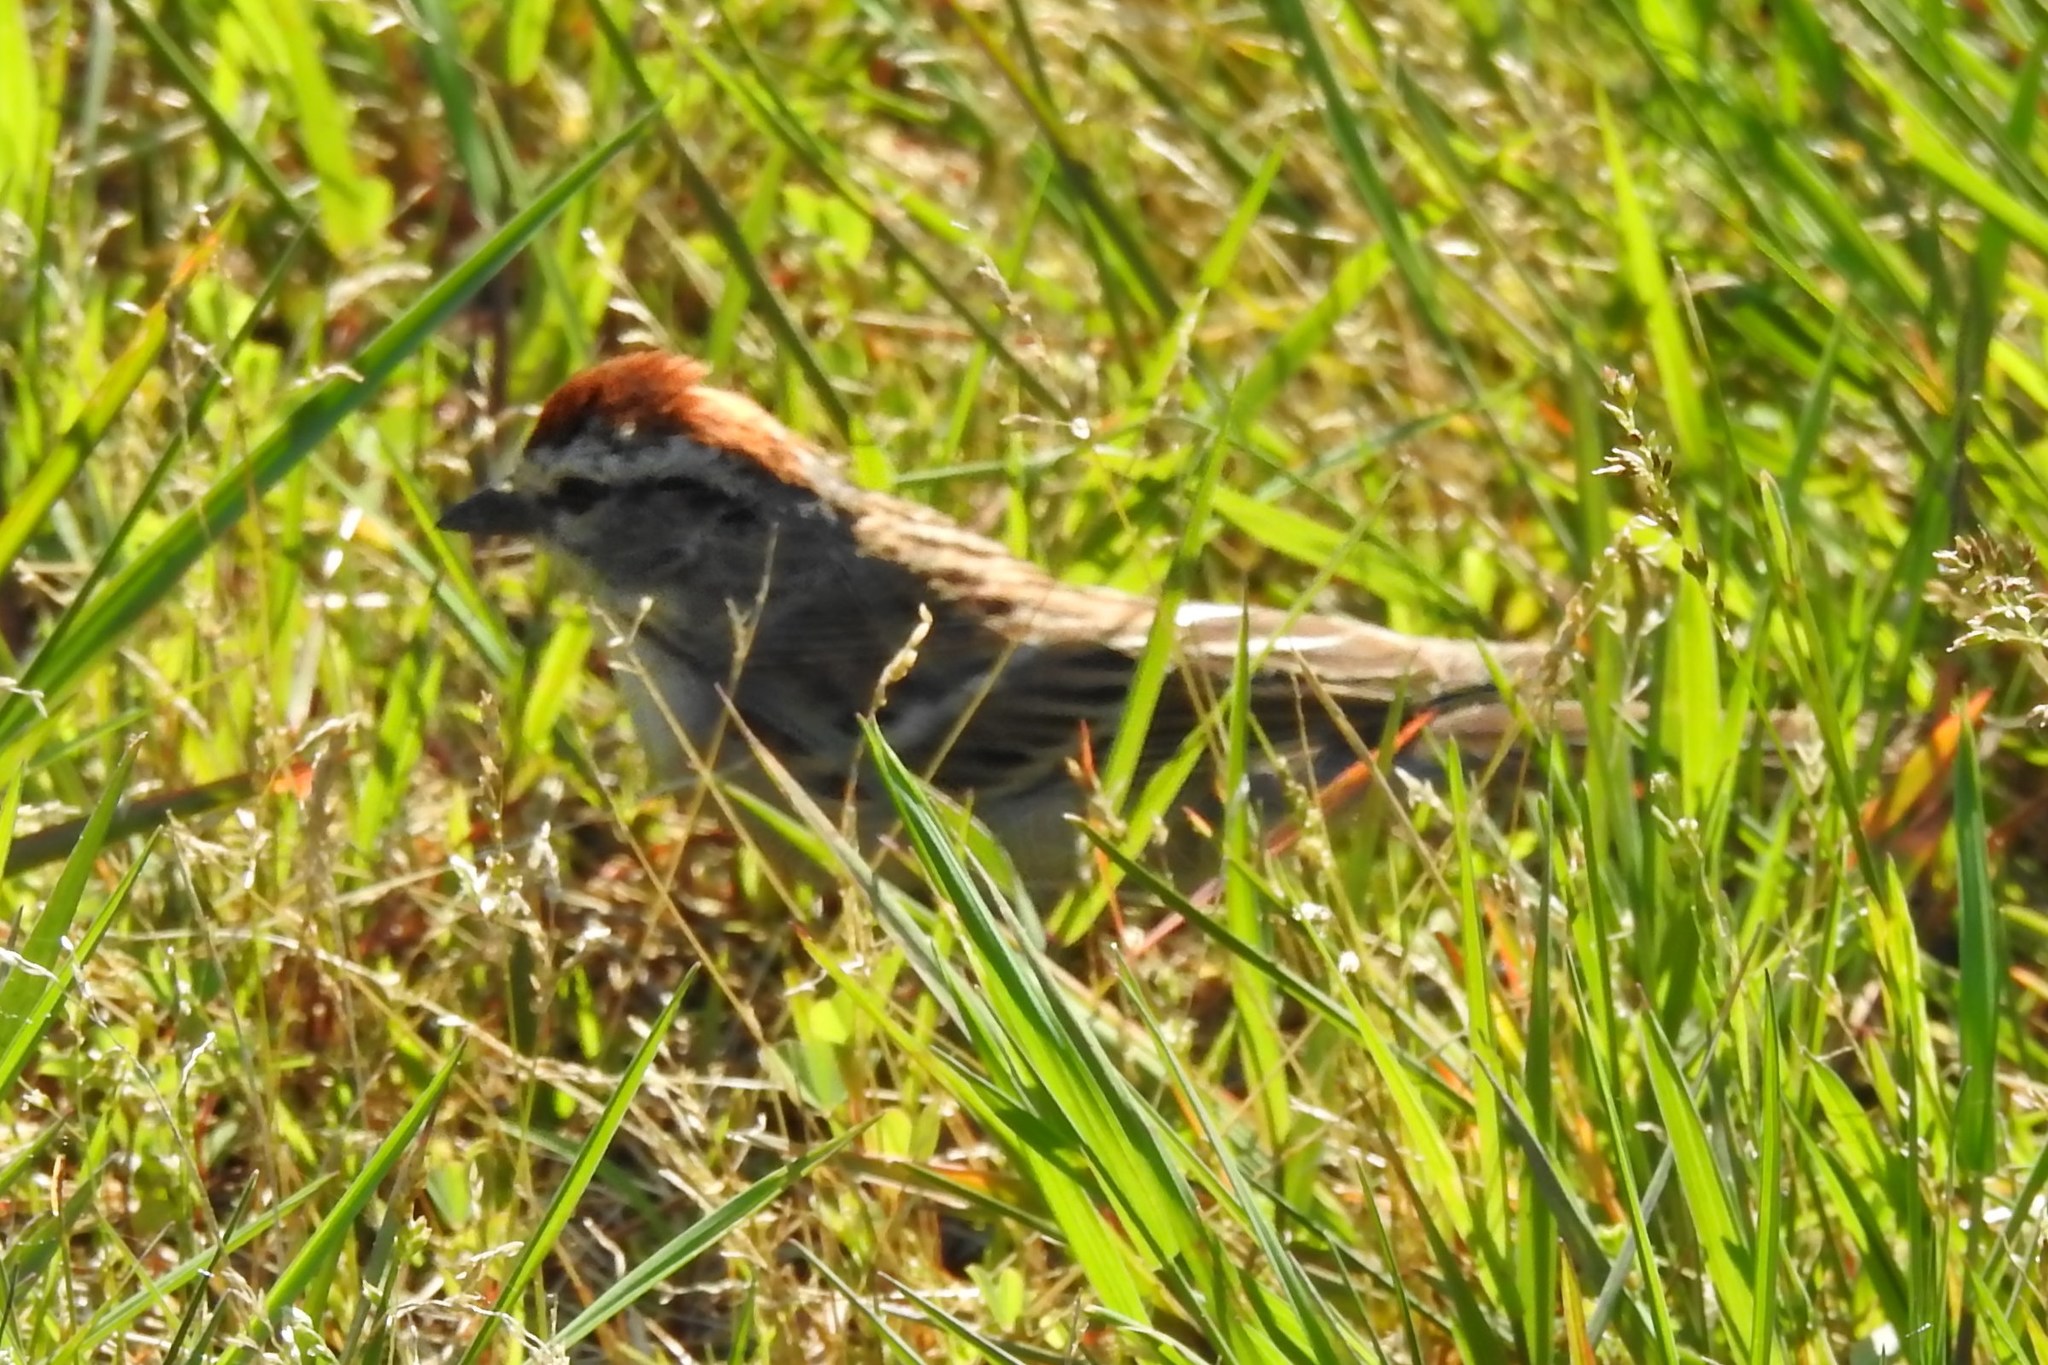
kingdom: Animalia
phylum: Chordata
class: Aves
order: Passeriformes
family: Passerellidae
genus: Spizella
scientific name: Spizella passerina
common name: Chipping sparrow
